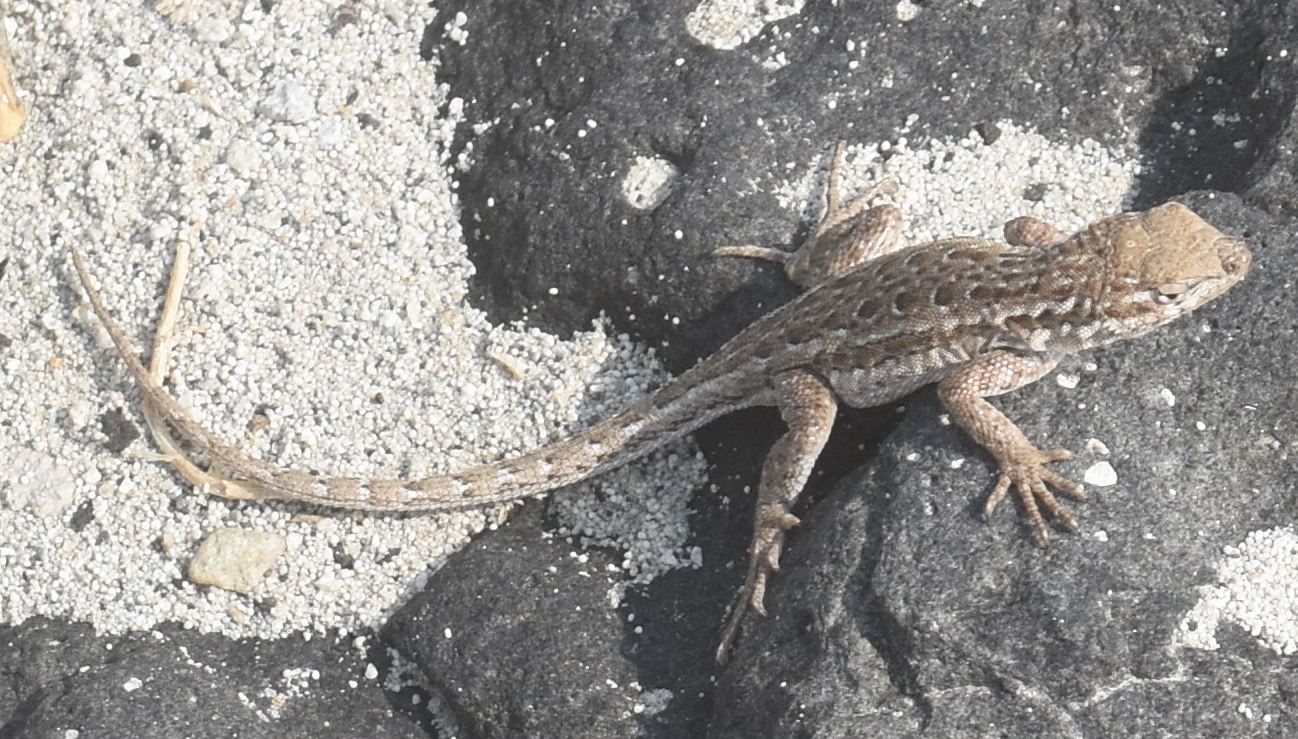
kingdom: Animalia
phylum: Chordata
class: Squamata
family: Phrynosomatidae
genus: Uta
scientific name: Uta stansburiana
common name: Side-blotched lizard
